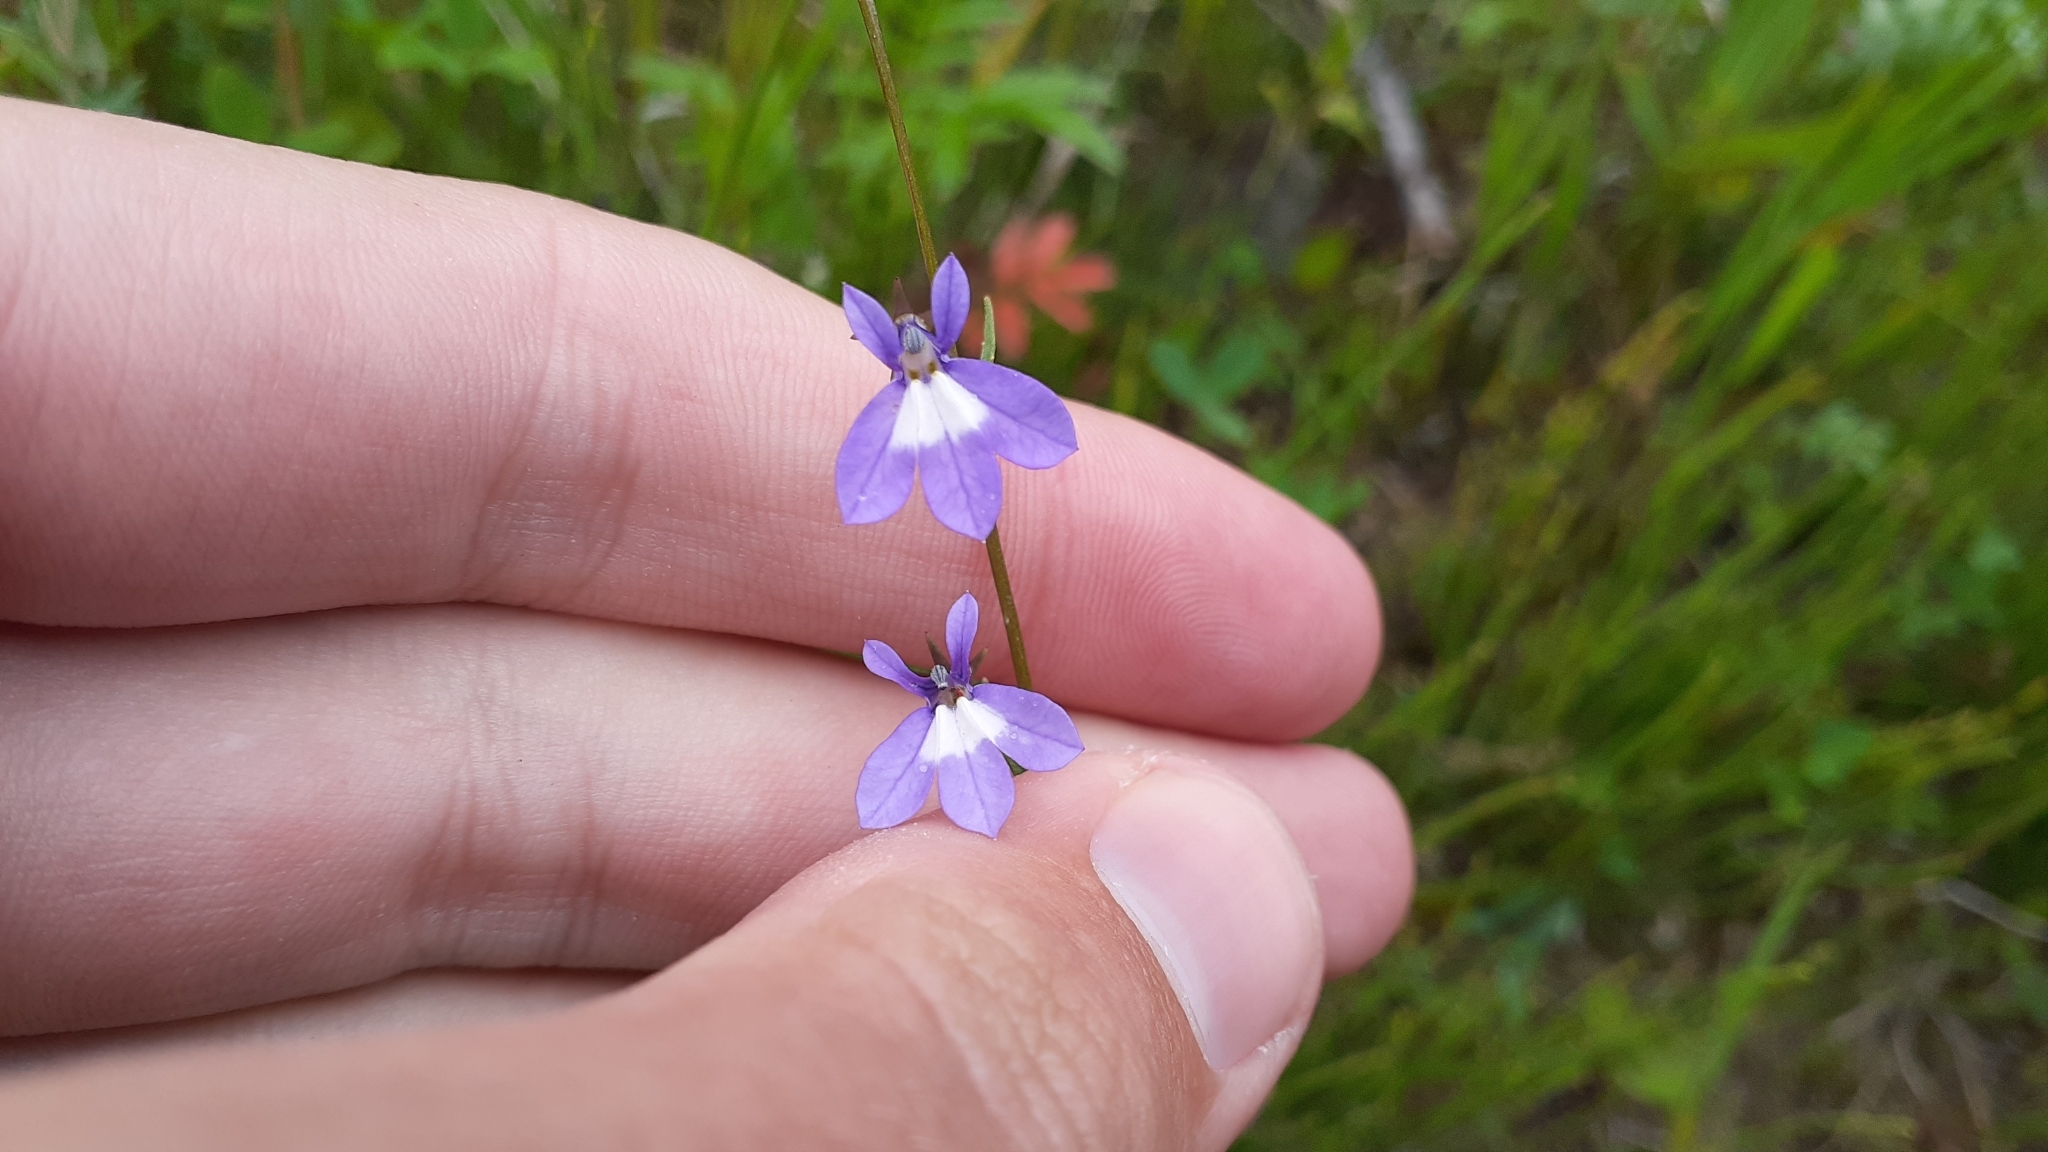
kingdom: Plantae
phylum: Tracheophyta
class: Magnoliopsida
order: Asterales
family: Campanulaceae
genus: Lobelia
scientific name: Lobelia kalmii
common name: Kalm's lobelia
